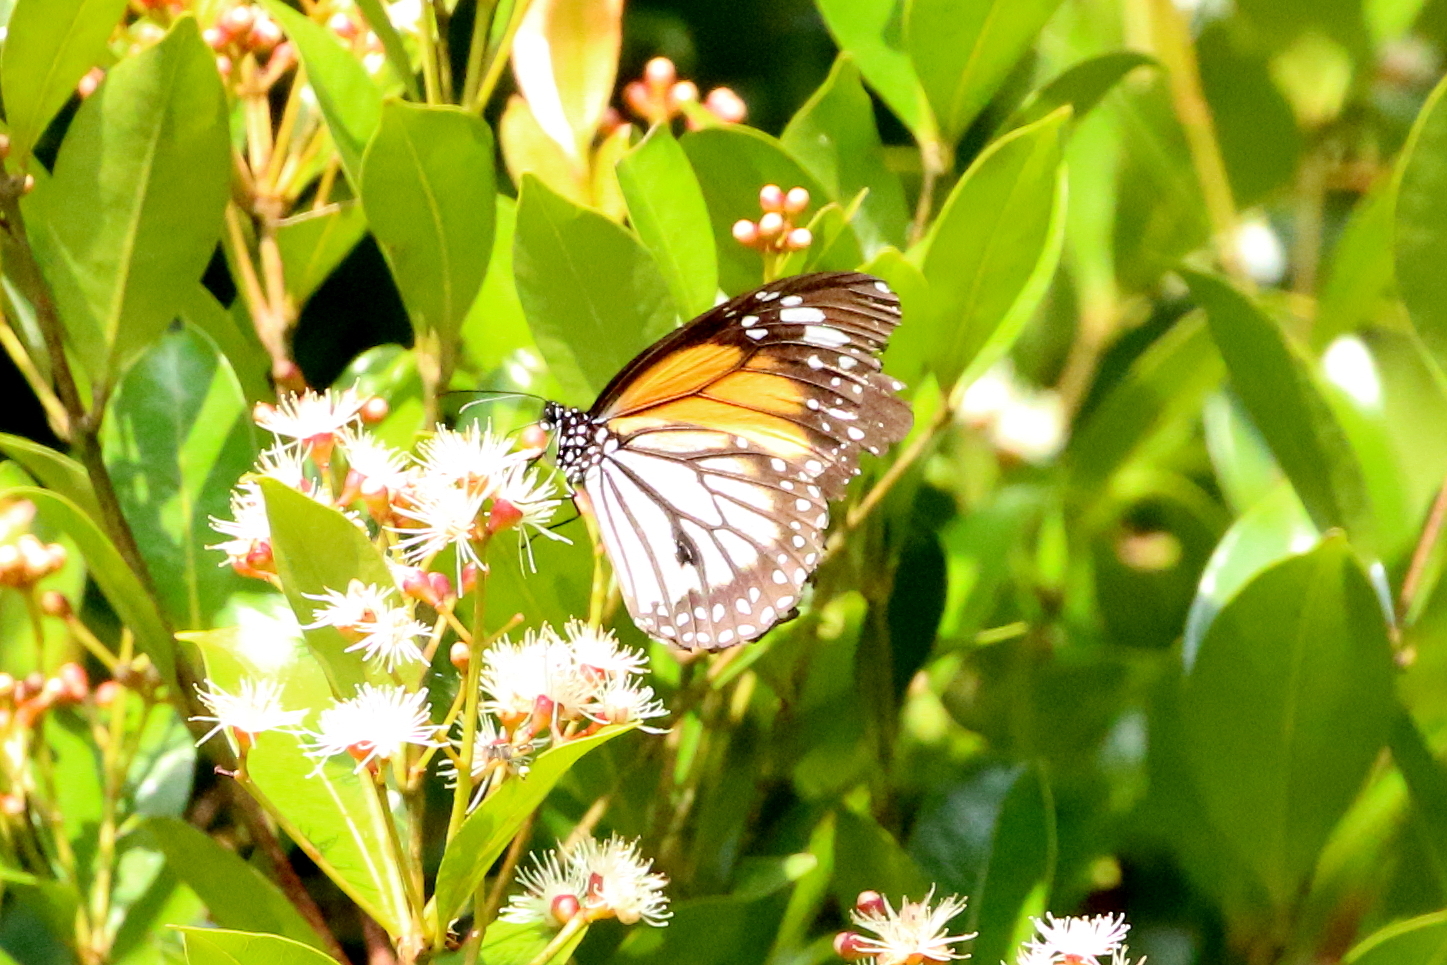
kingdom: Animalia
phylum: Arthropoda
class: Insecta
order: Lepidoptera
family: Nymphalidae
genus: Danaus
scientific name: Danaus melanippus
